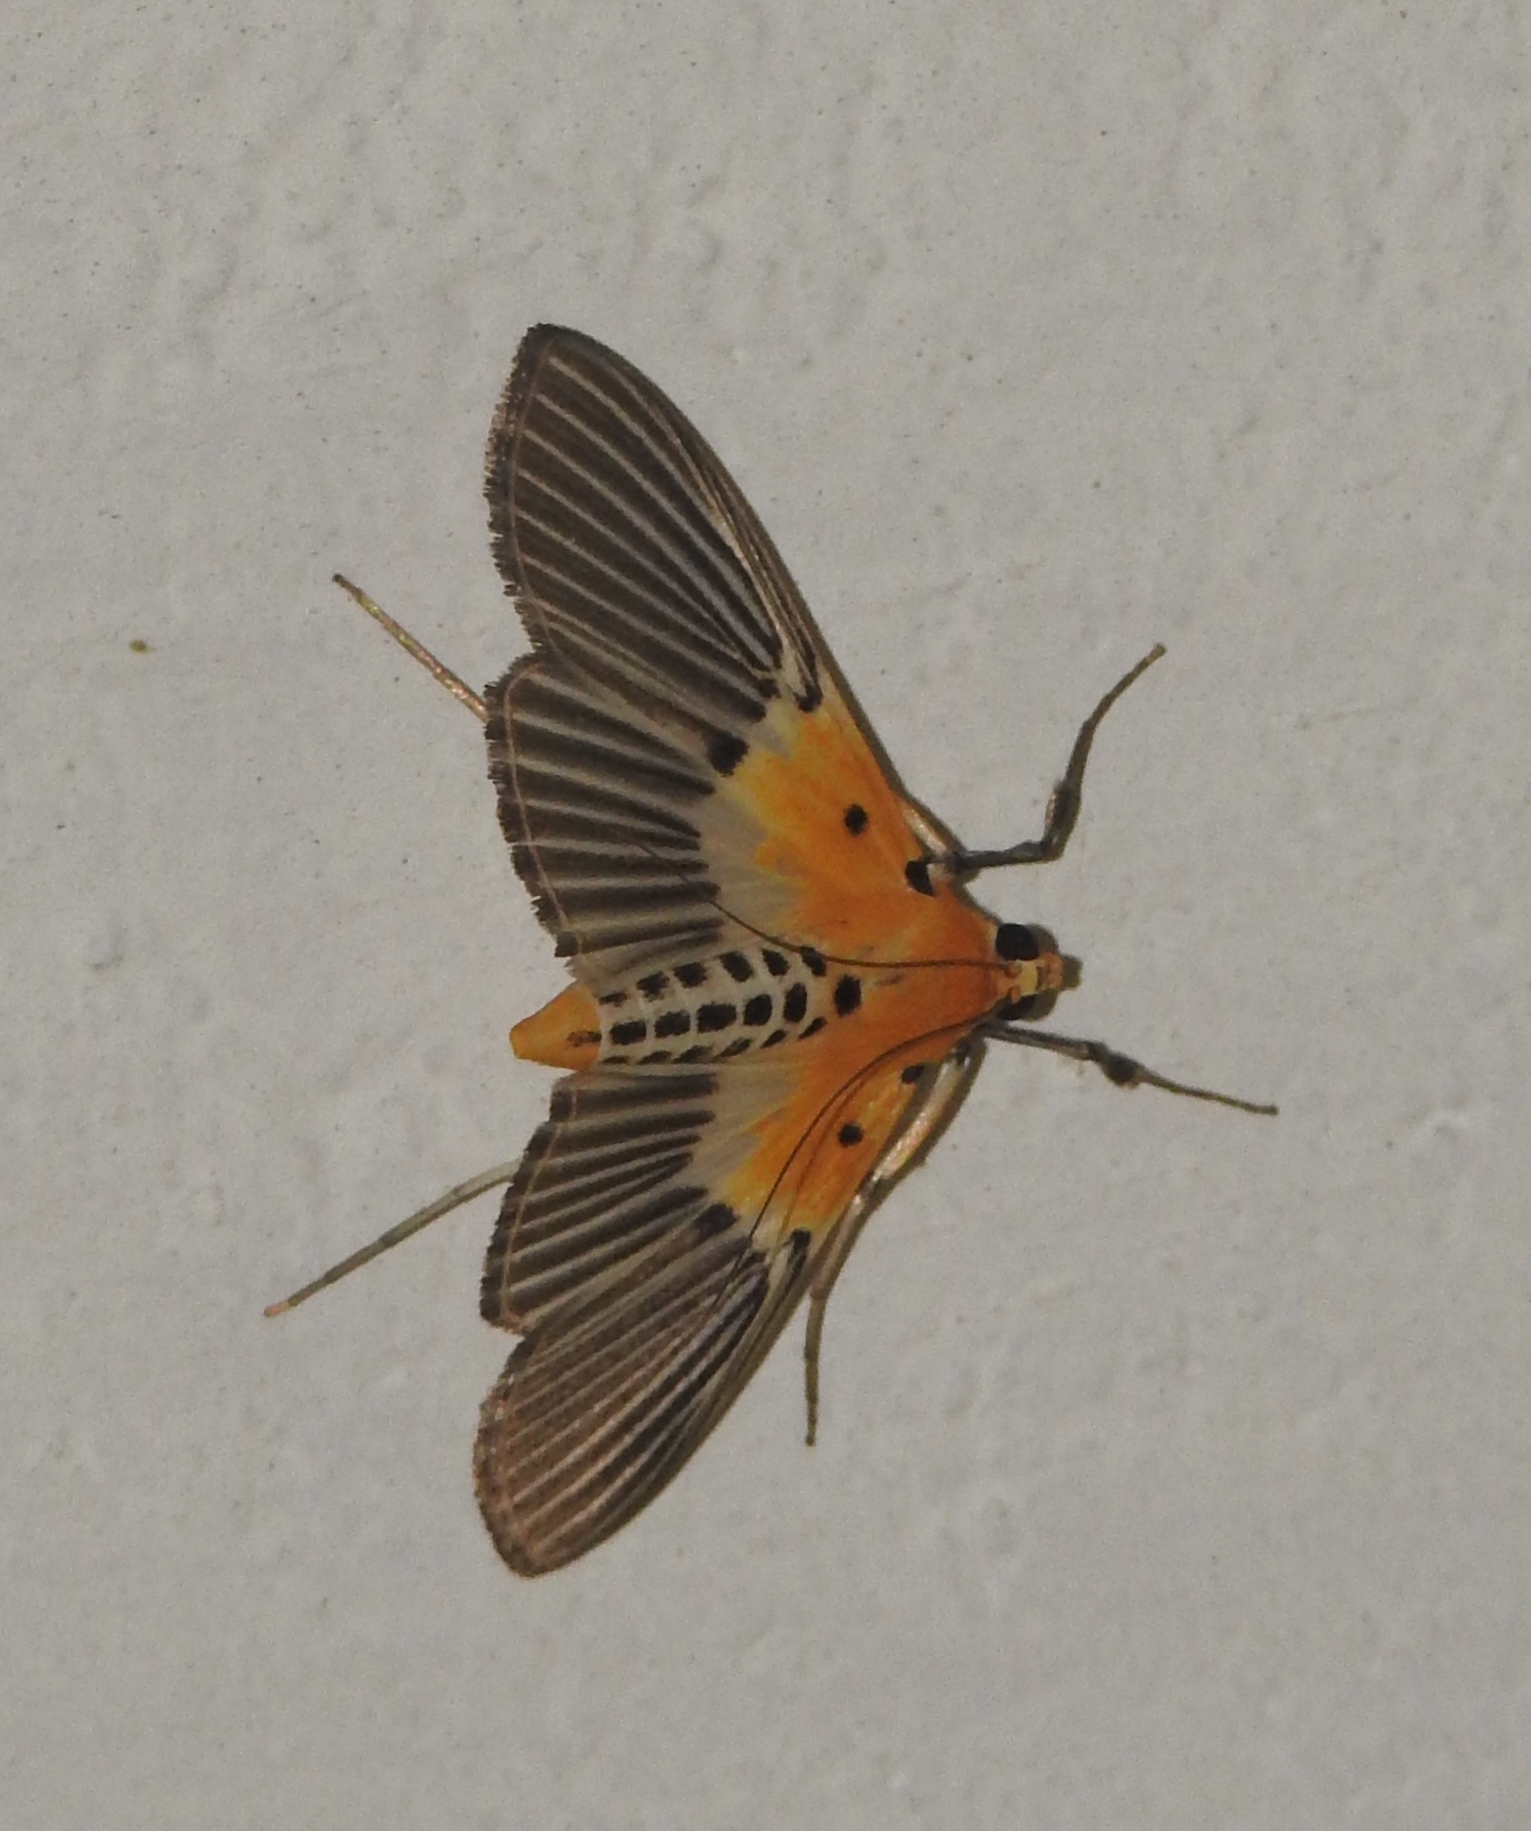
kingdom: Animalia
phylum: Arthropoda
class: Insecta
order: Lepidoptera
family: Crambidae
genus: Nevrina
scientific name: Nevrina procopia
